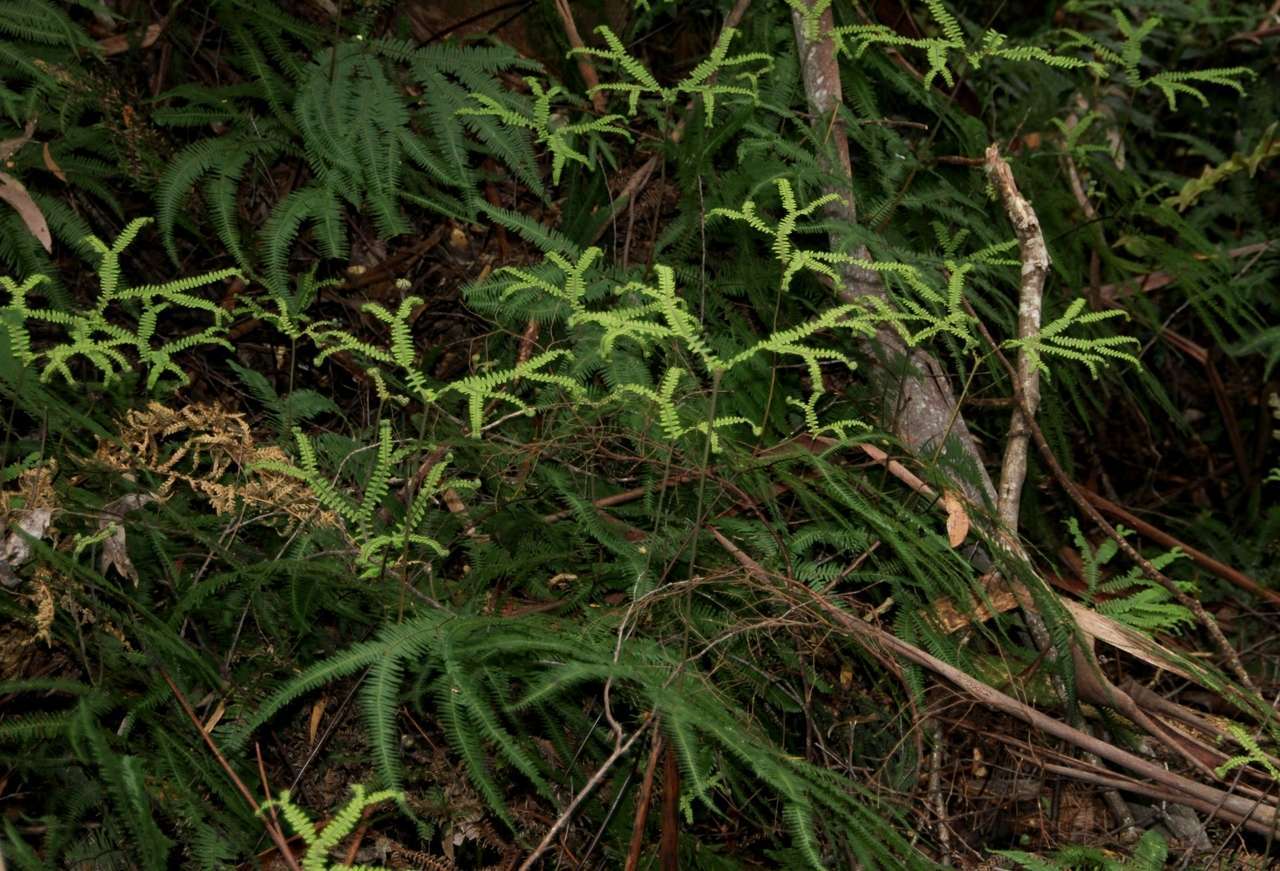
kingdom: Plantae
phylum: Tracheophyta
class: Polypodiopsida
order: Gleicheniales
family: Gleicheniaceae
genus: Sticherus
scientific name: Sticherus tener
